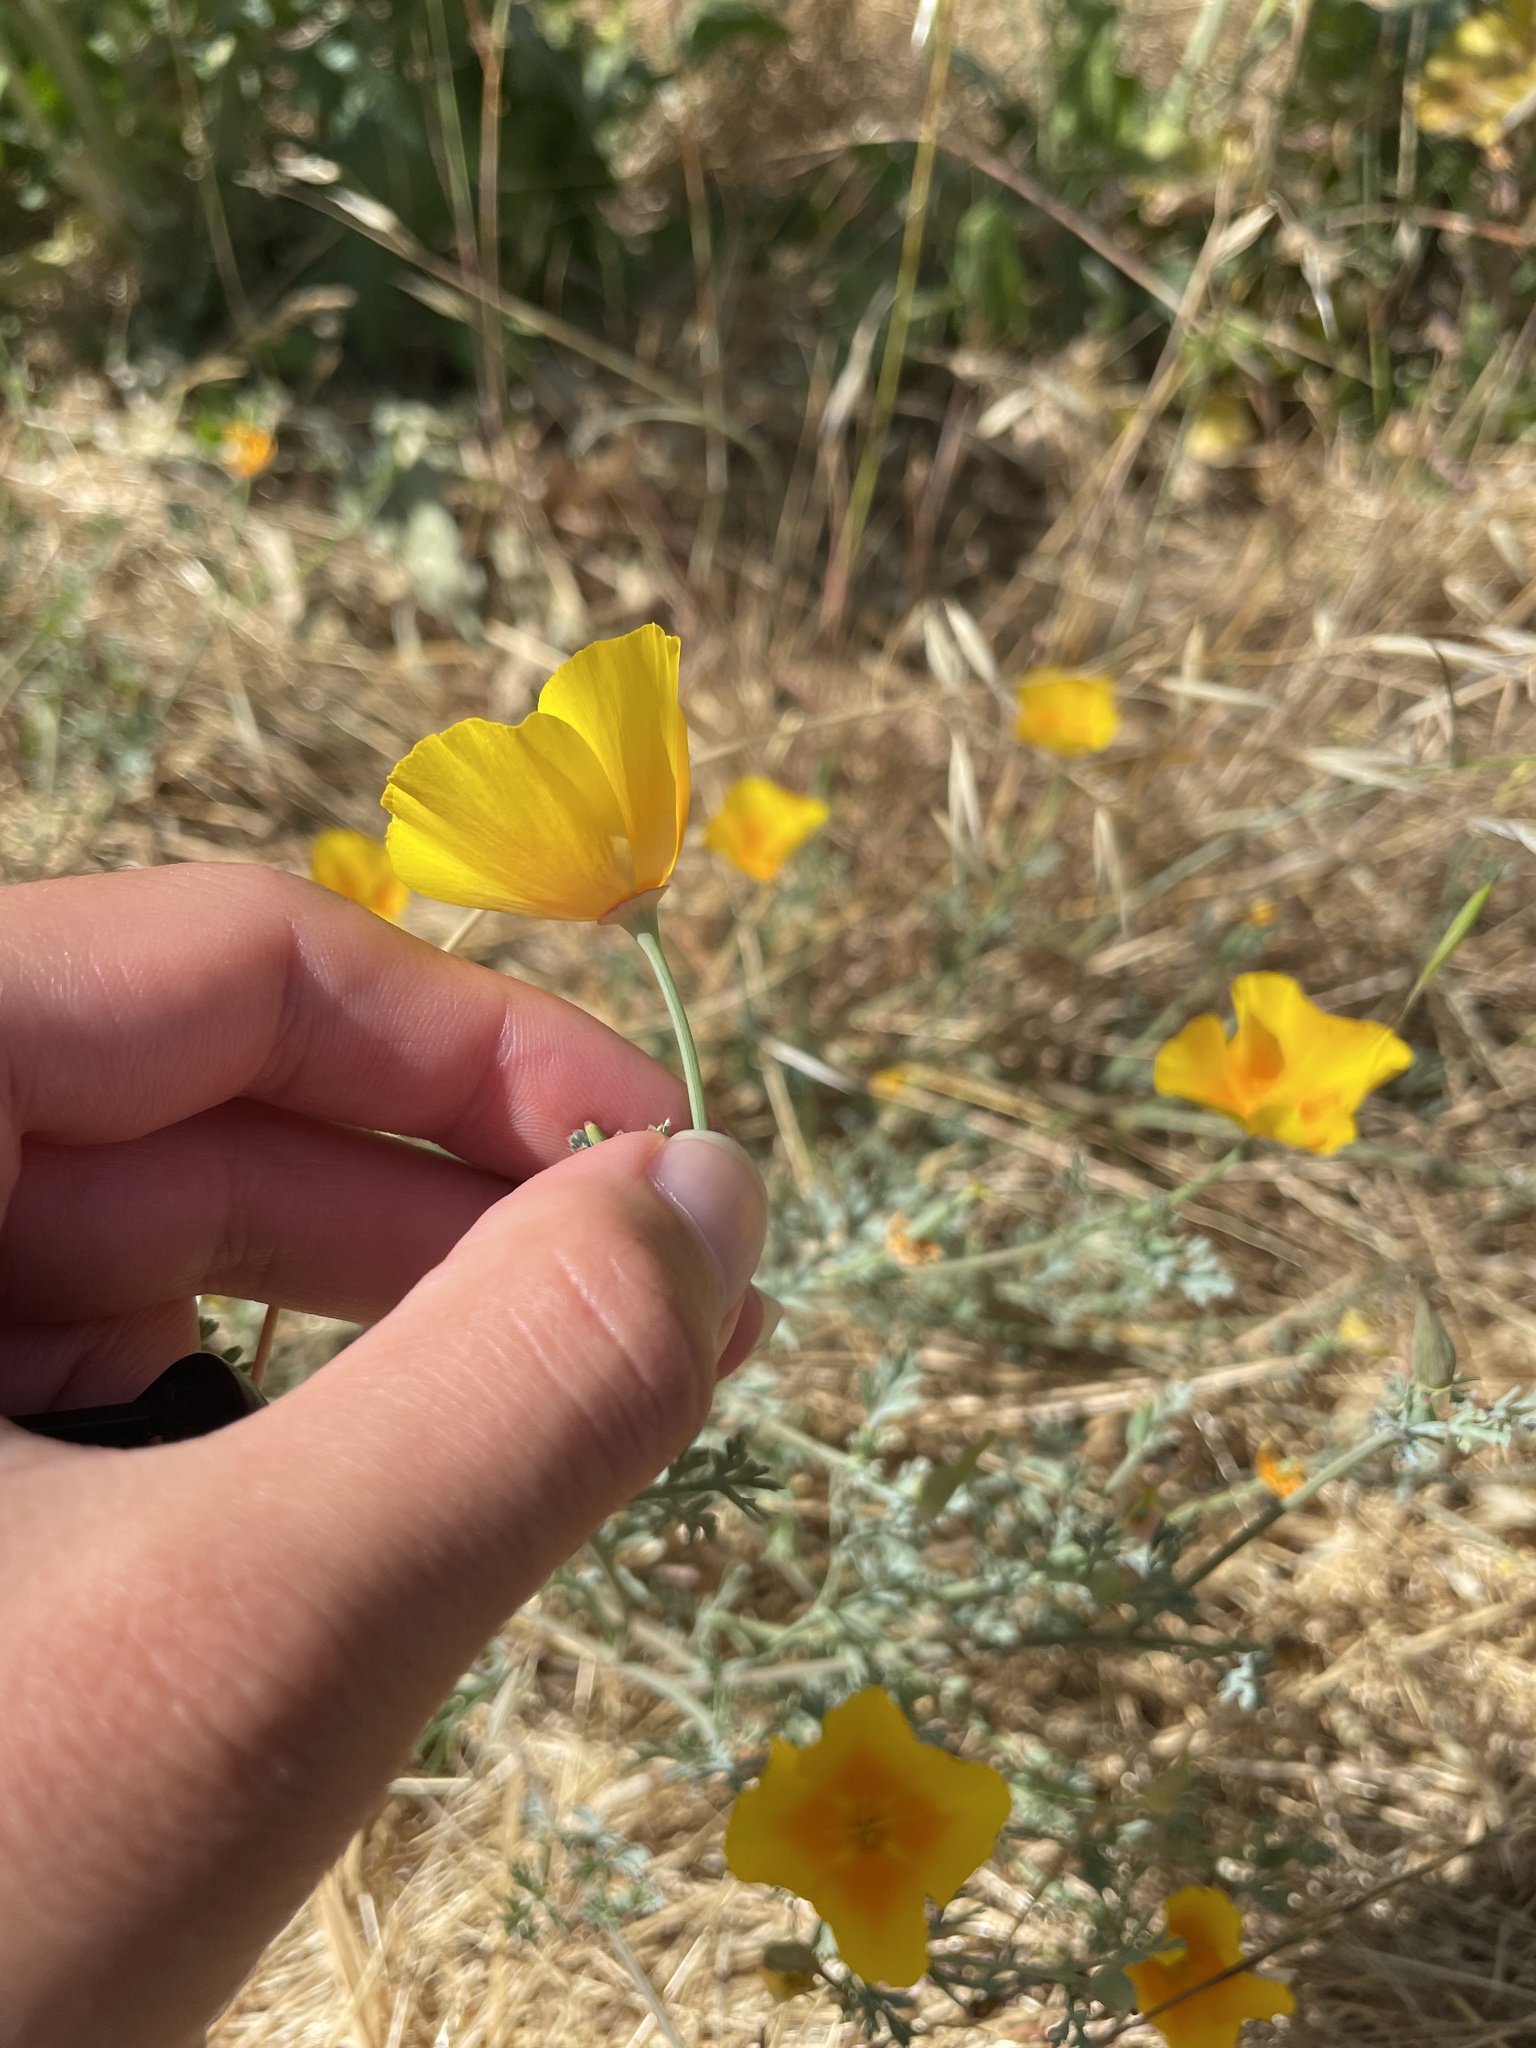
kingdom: Plantae
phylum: Tracheophyta
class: Magnoliopsida
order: Ranunculales
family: Papaveraceae
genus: Eschscholzia
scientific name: Eschscholzia californica
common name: California poppy
